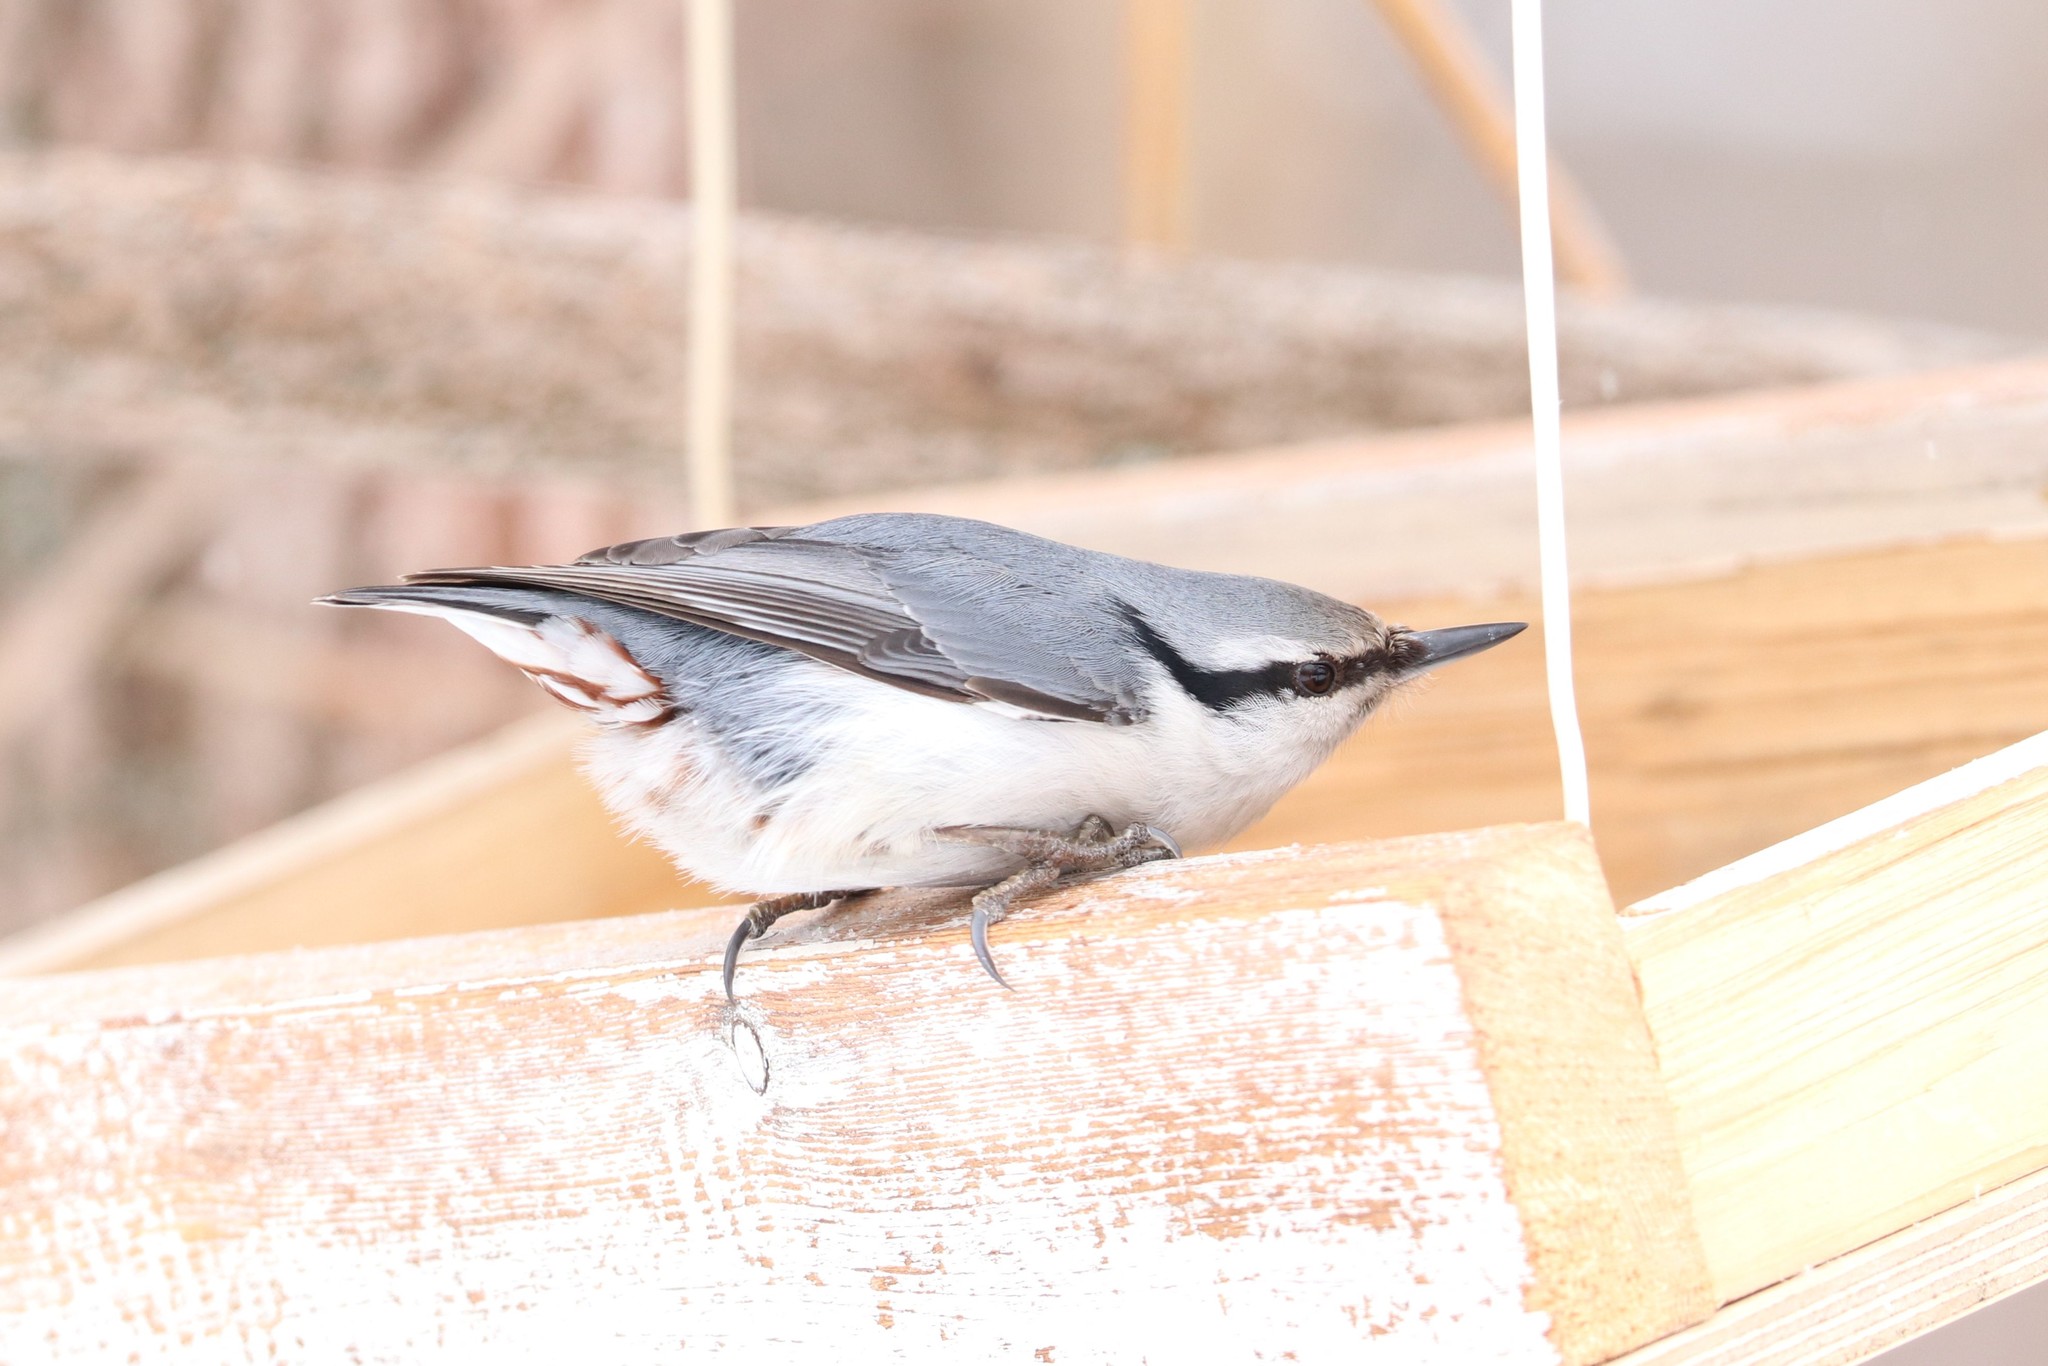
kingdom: Animalia
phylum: Chordata
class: Aves
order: Passeriformes
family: Sittidae
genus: Sitta
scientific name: Sitta europaea
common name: Eurasian nuthatch
